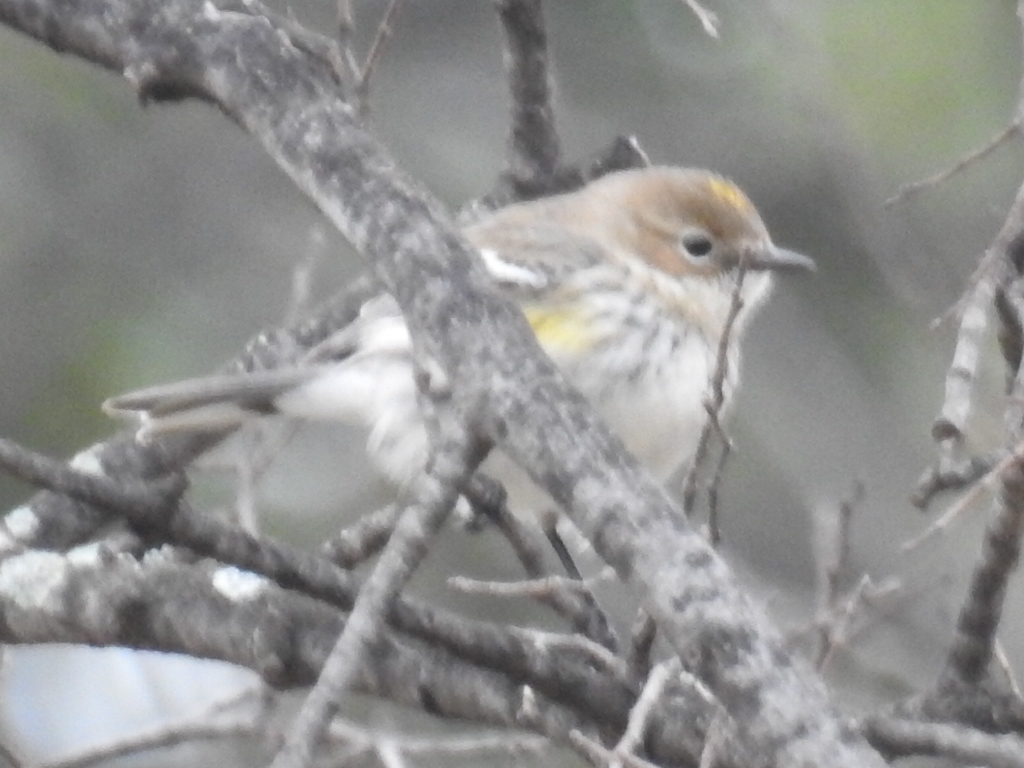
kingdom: Animalia
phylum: Chordata
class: Aves
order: Passeriformes
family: Parulidae
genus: Setophaga
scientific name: Setophaga coronata
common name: Myrtle warbler
